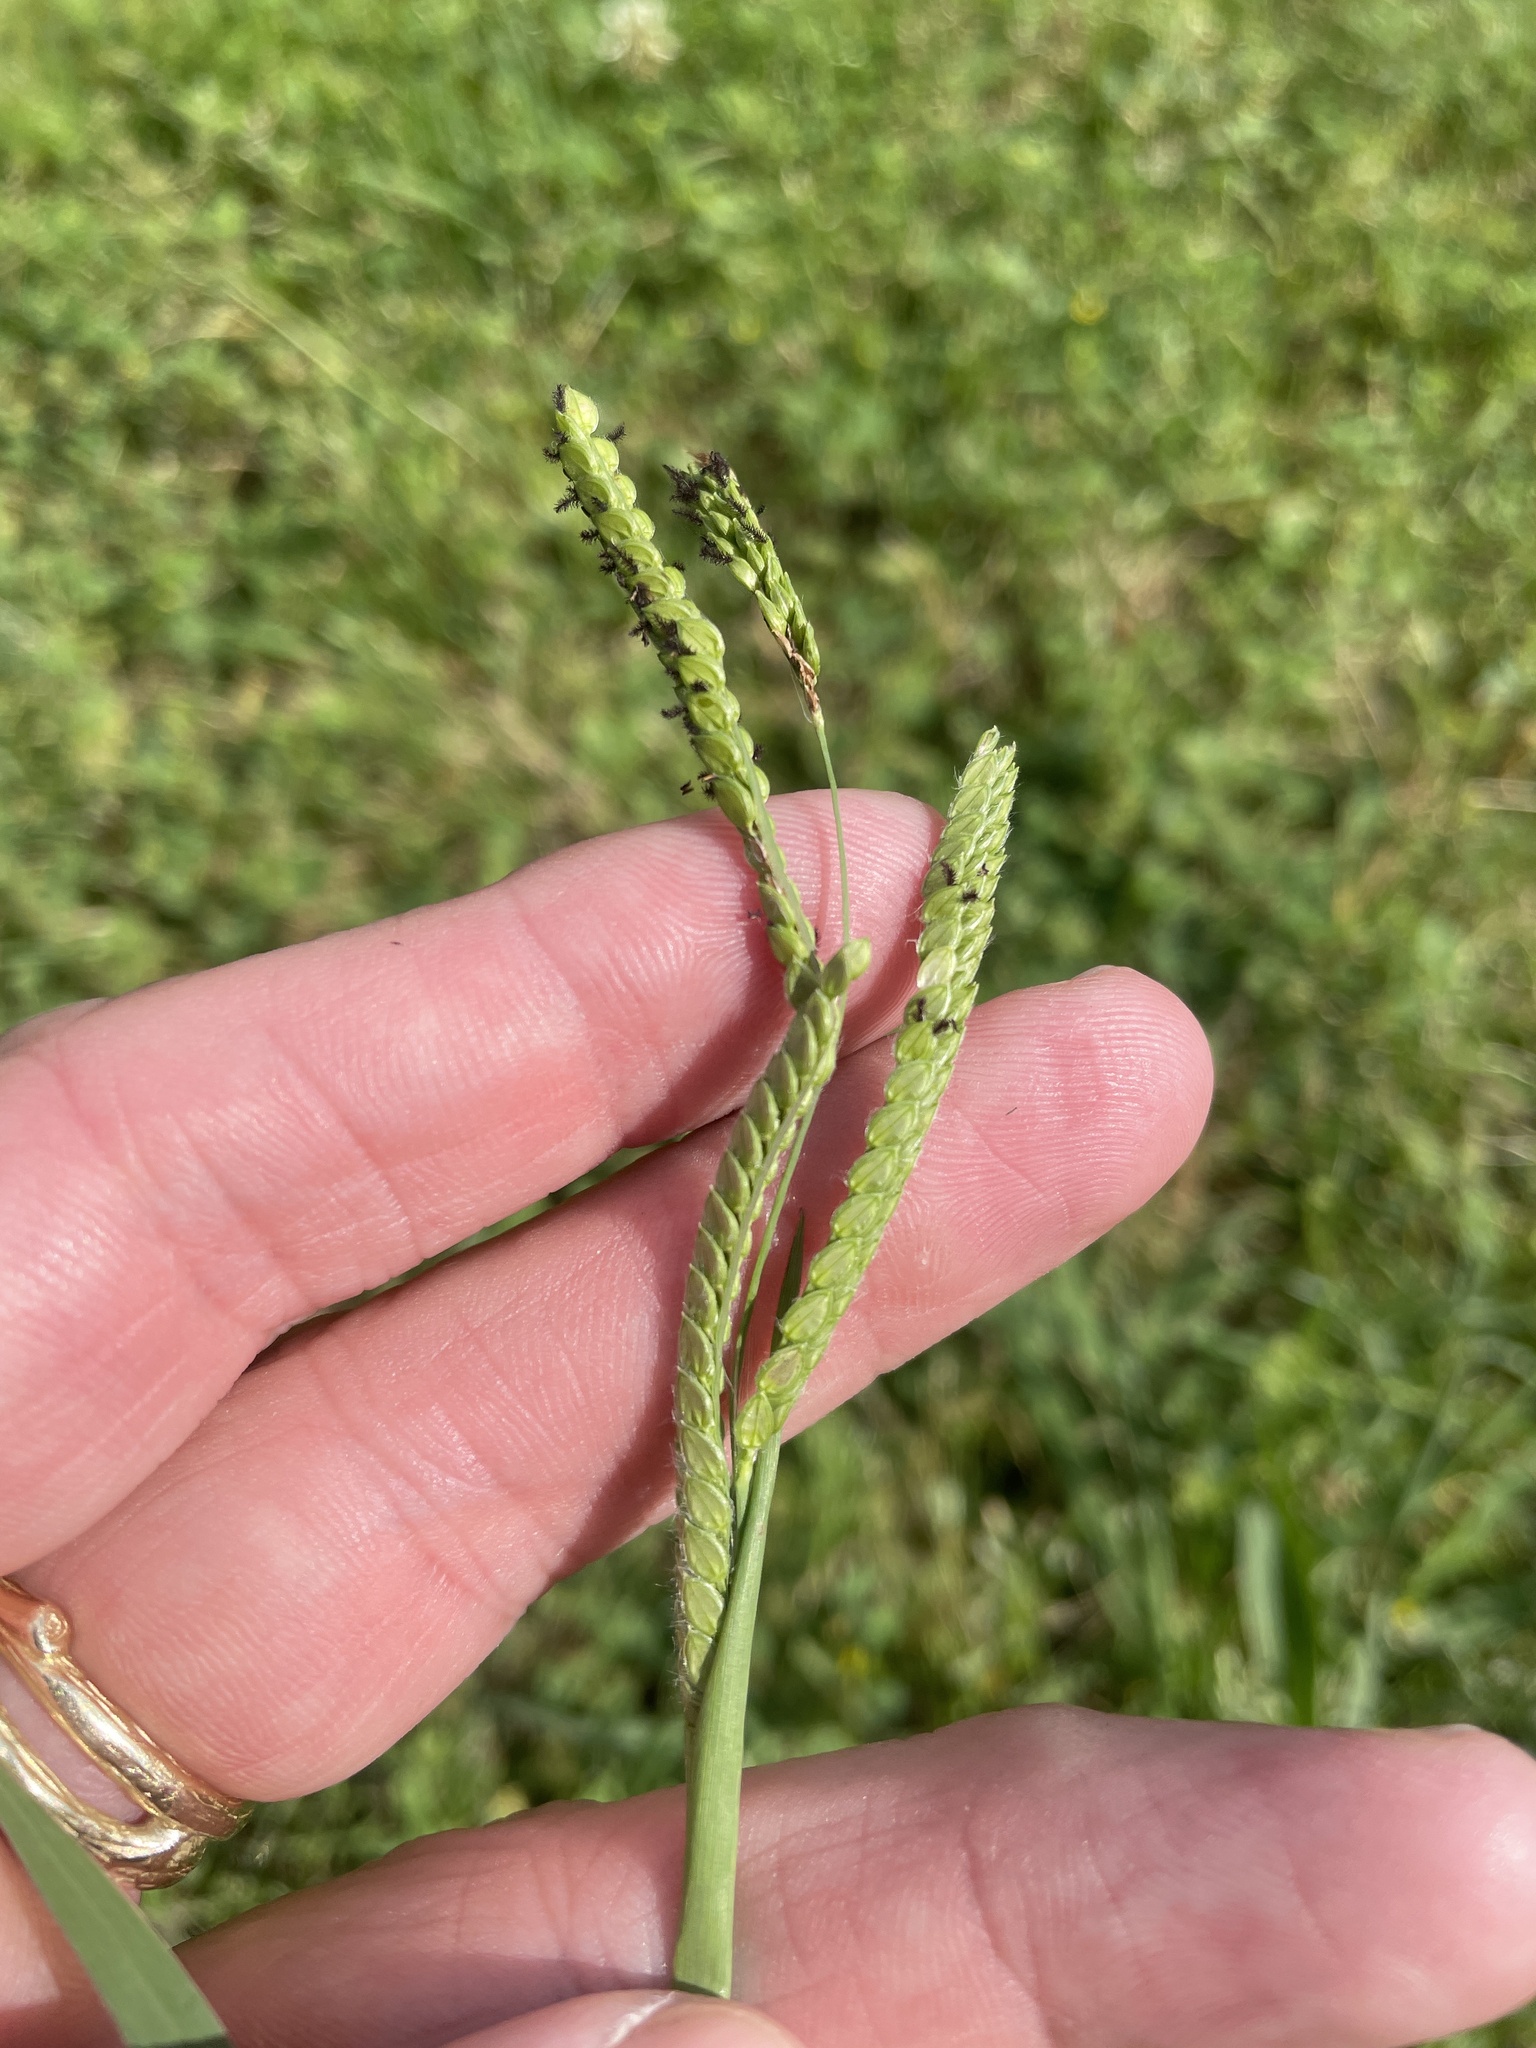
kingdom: Plantae
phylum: Tracheophyta
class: Liliopsida
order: Poales
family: Poaceae
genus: Paspalum
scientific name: Paspalum dilatatum
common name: Dallisgrass
